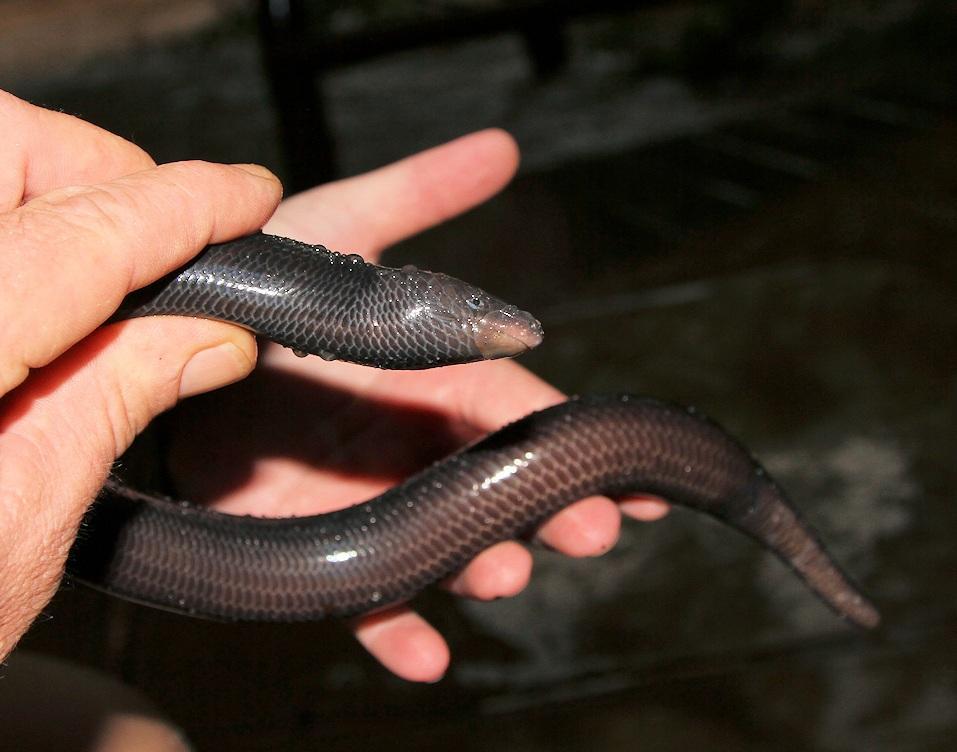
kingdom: Animalia
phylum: Chordata
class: Squamata
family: Scincidae
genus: Acontias
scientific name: Acontias plumbeus
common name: Giant lance skink
